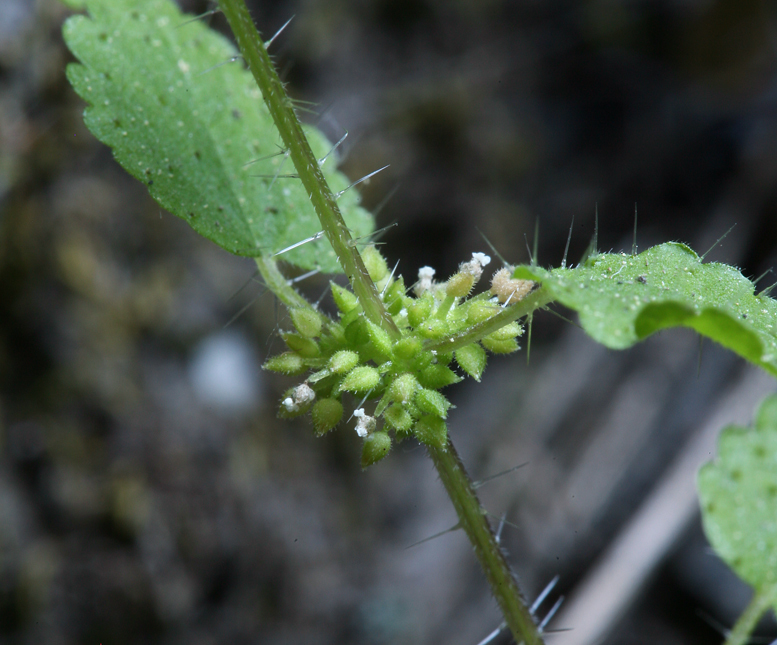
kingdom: Plantae
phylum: Tracheophyta
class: Magnoliopsida
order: Rosales
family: Urticaceae
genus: Hesperocnide
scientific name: Hesperocnide tenella
